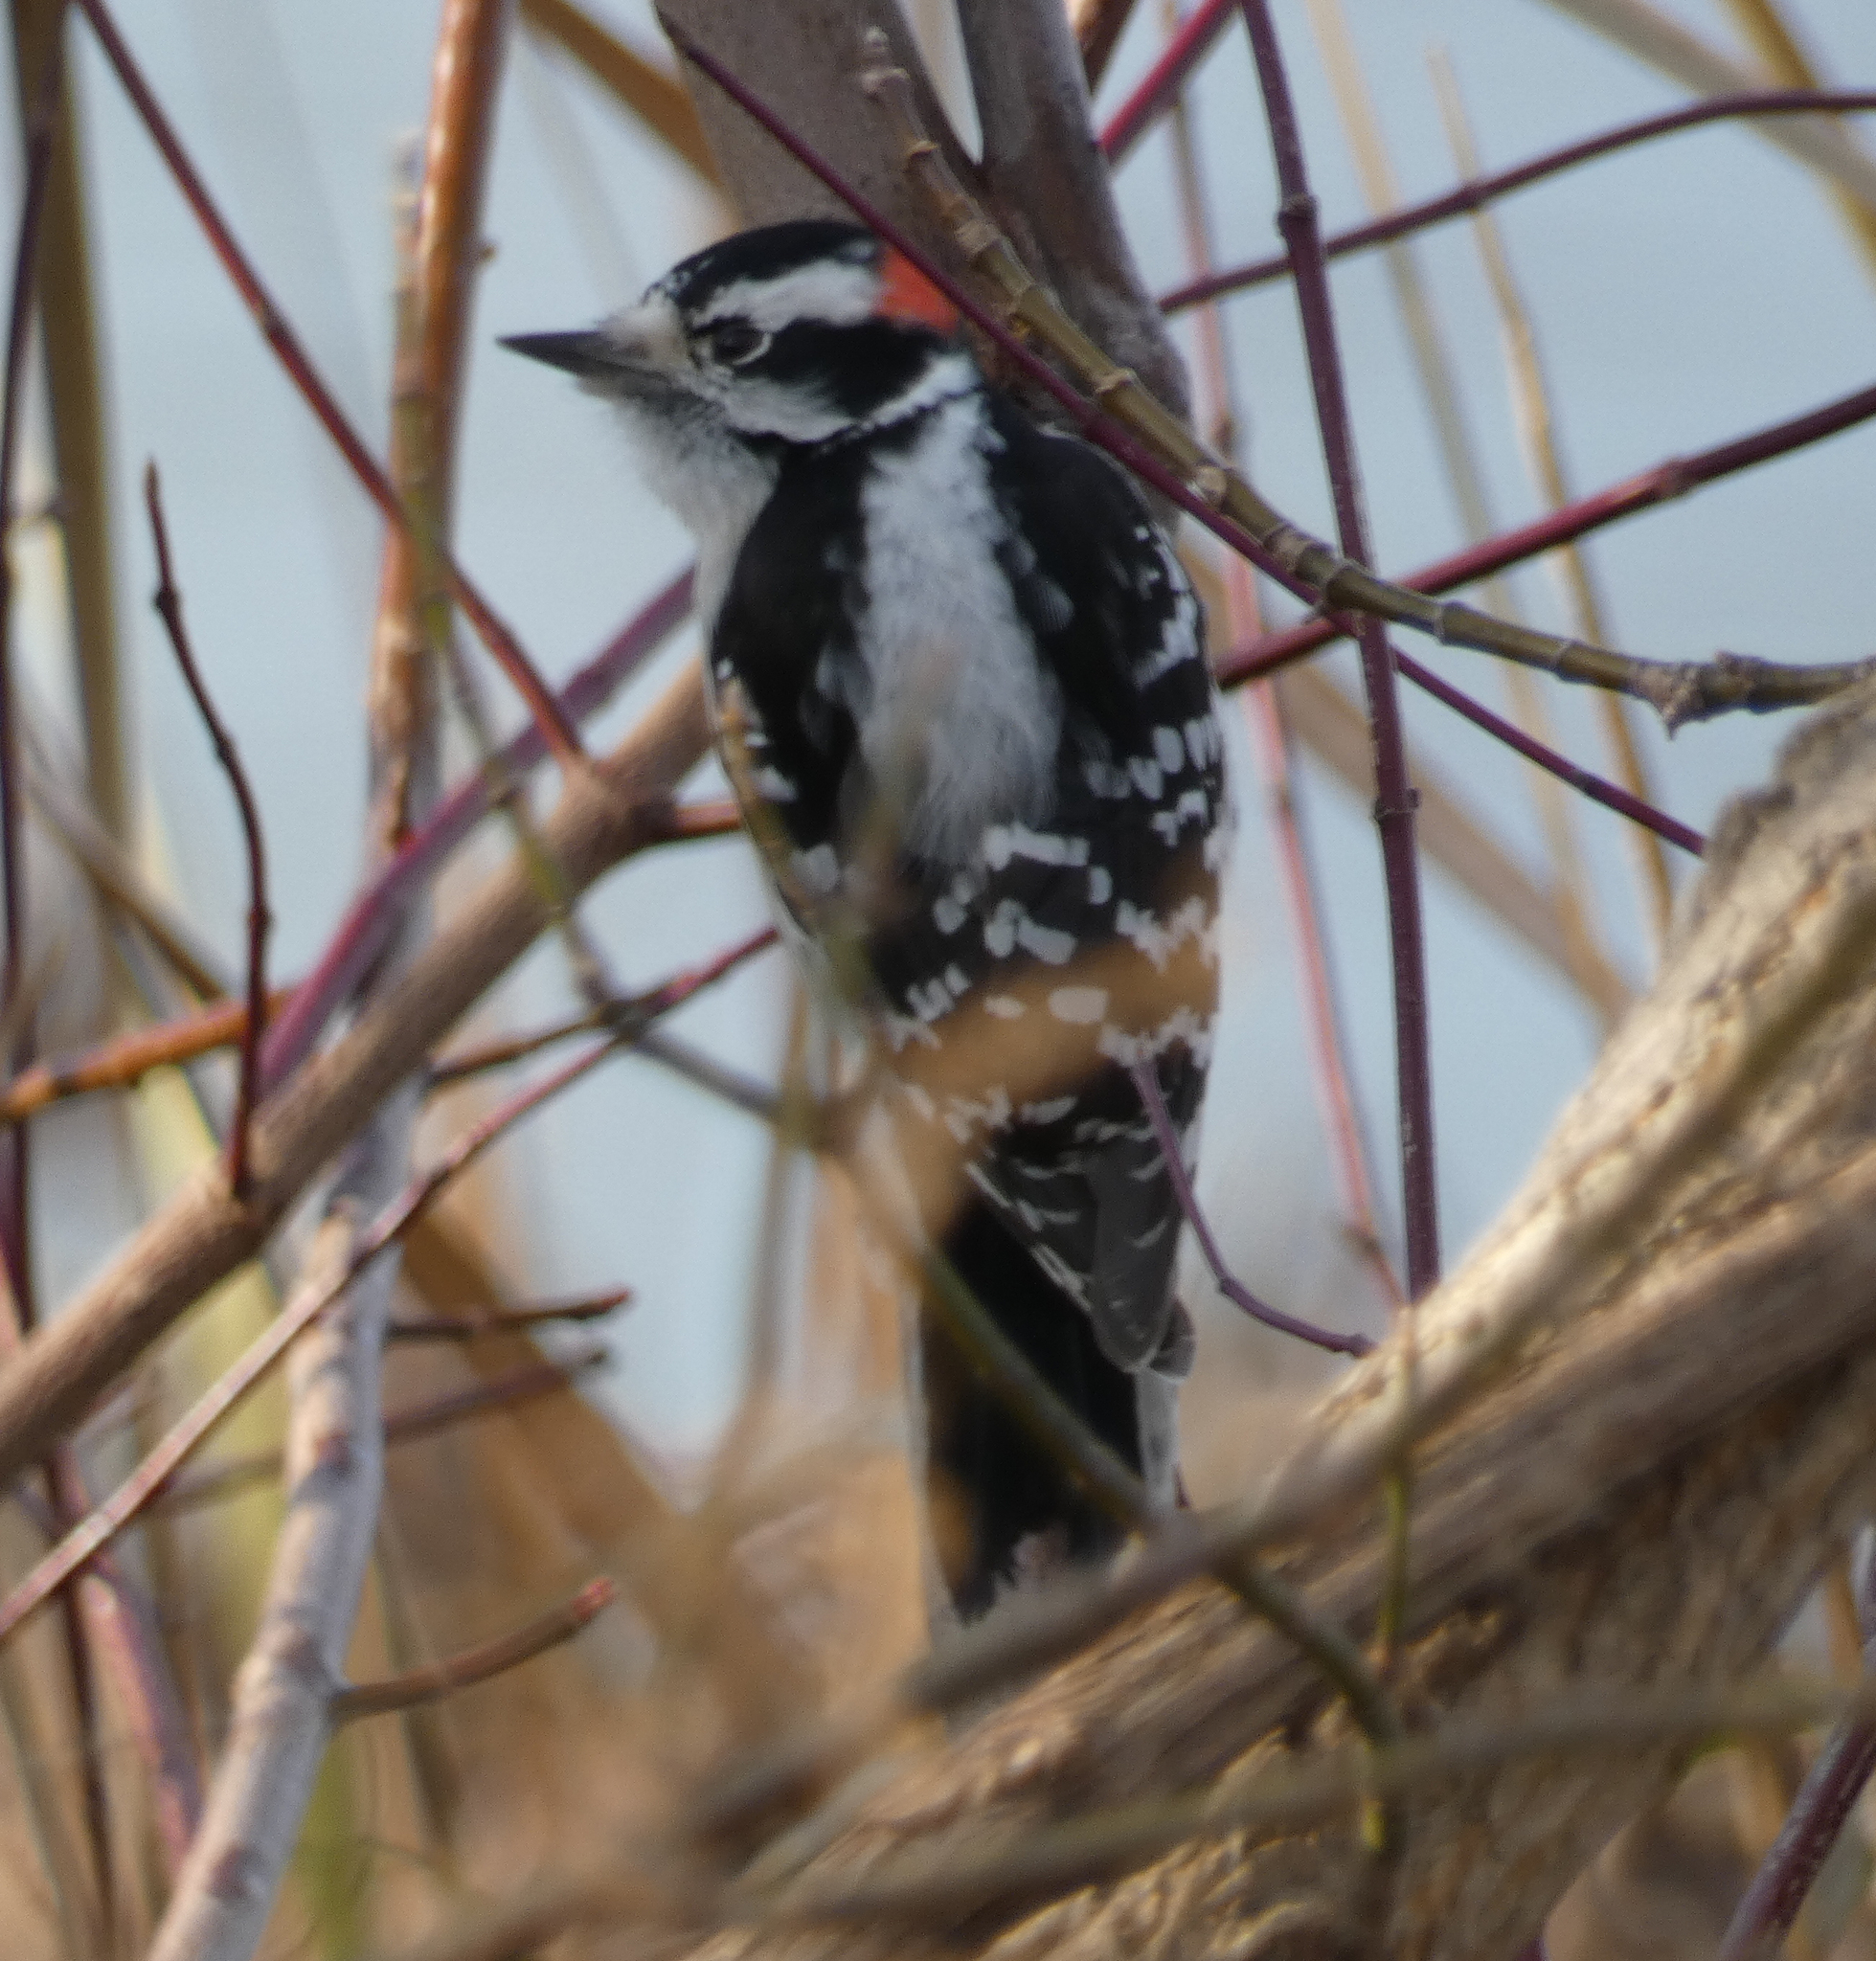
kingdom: Animalia
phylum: Chordata
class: Aves
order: Piciformes
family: Picidae
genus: Dryobates
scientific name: Dryobates pubescens
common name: Downy woodpecker
